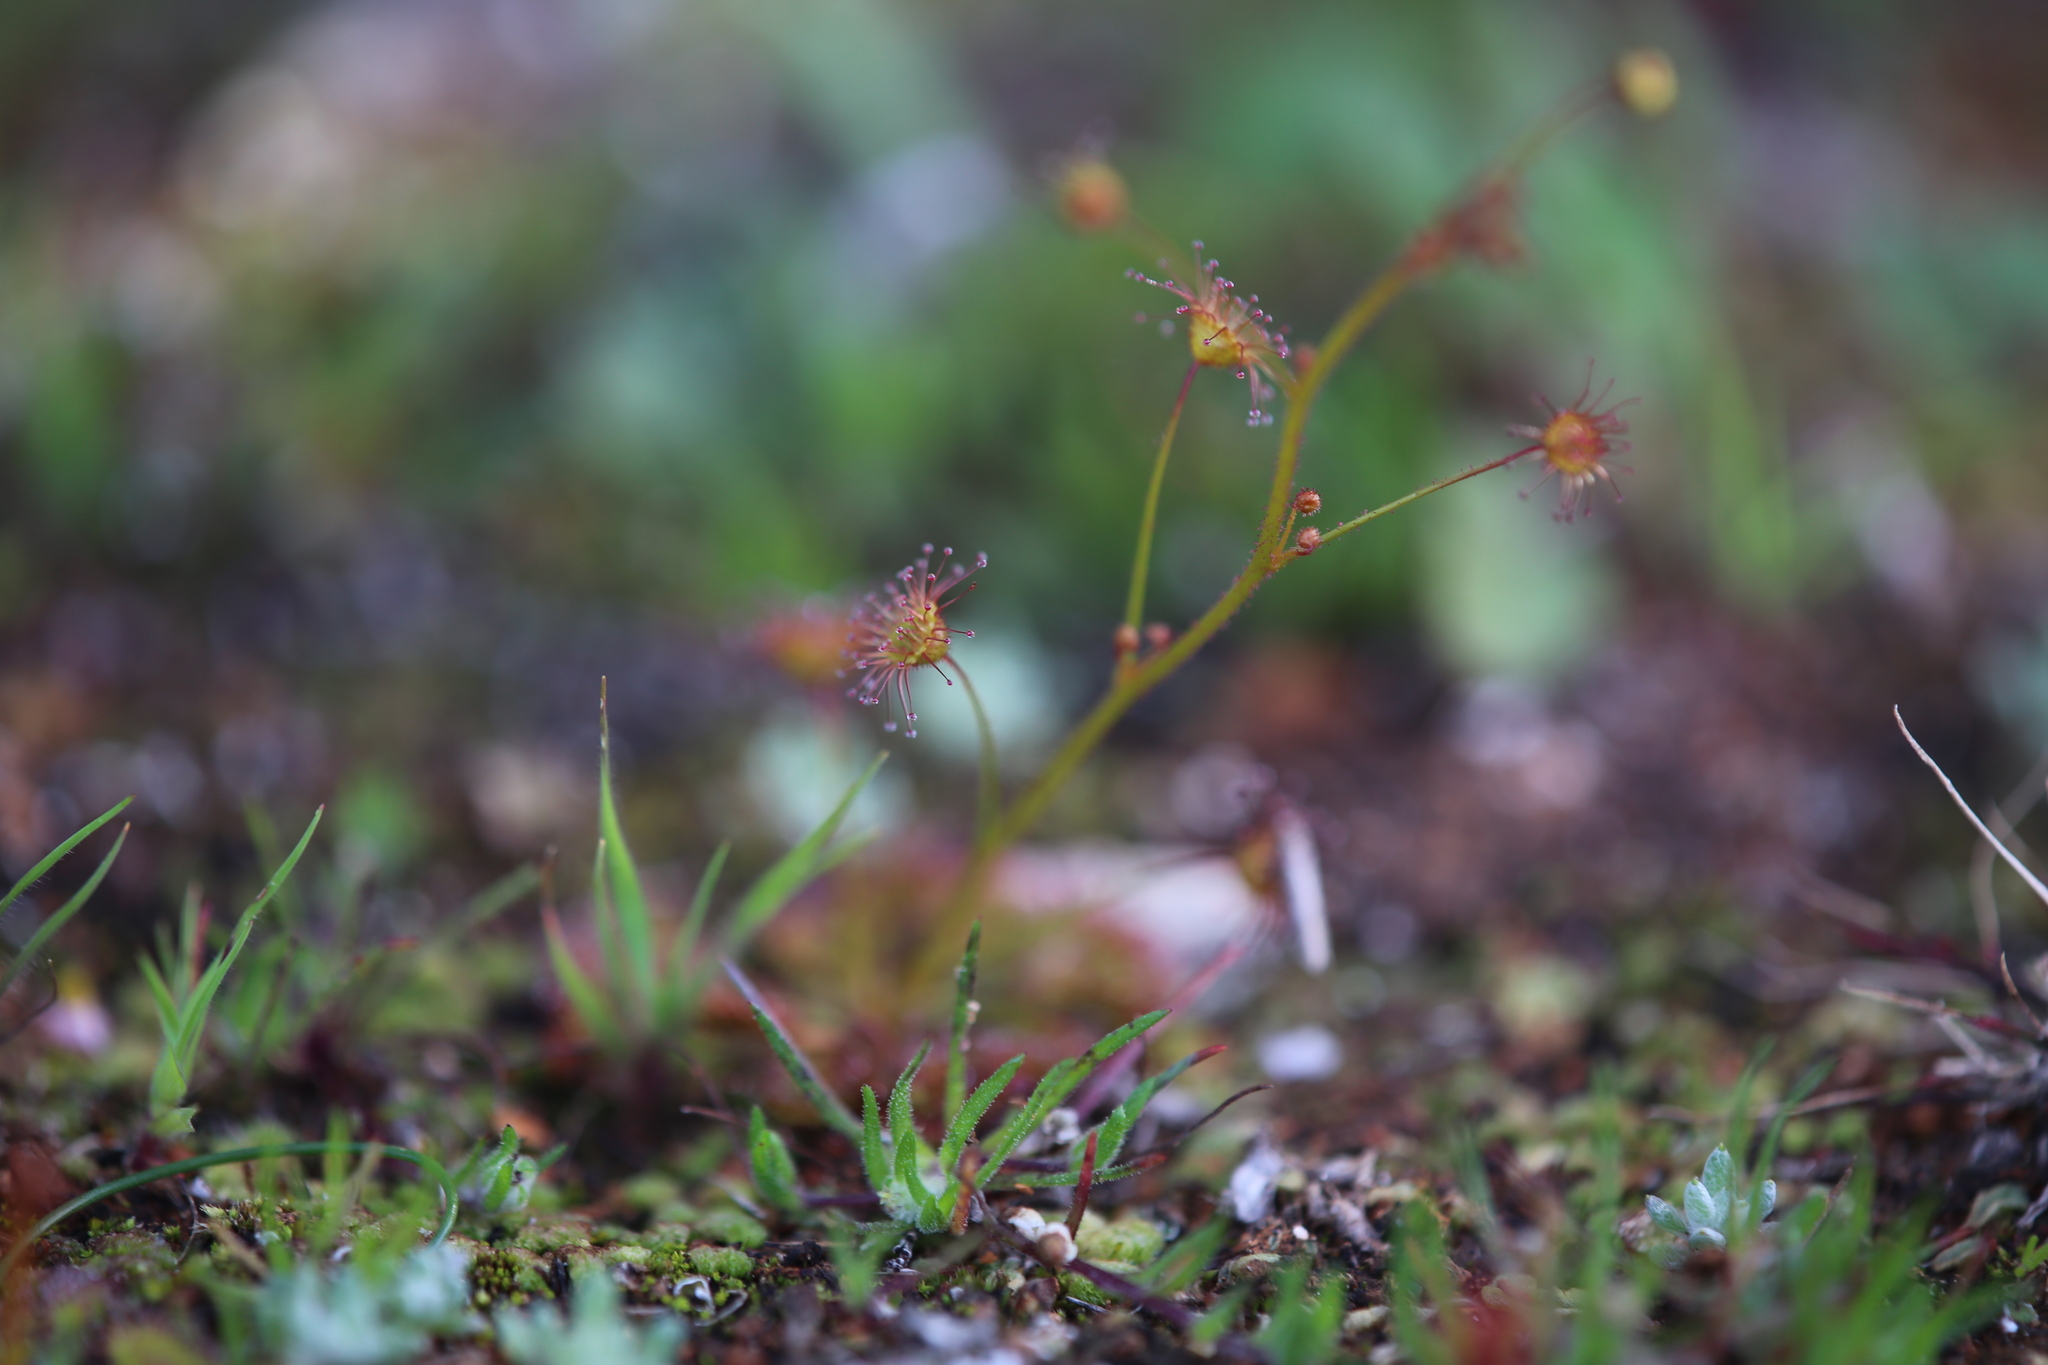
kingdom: Plantae
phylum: Tracheophyta
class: Magnoliopsida
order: Caryophyllales
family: Droseraceae
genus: Drosera
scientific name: Drosera andersoniana
